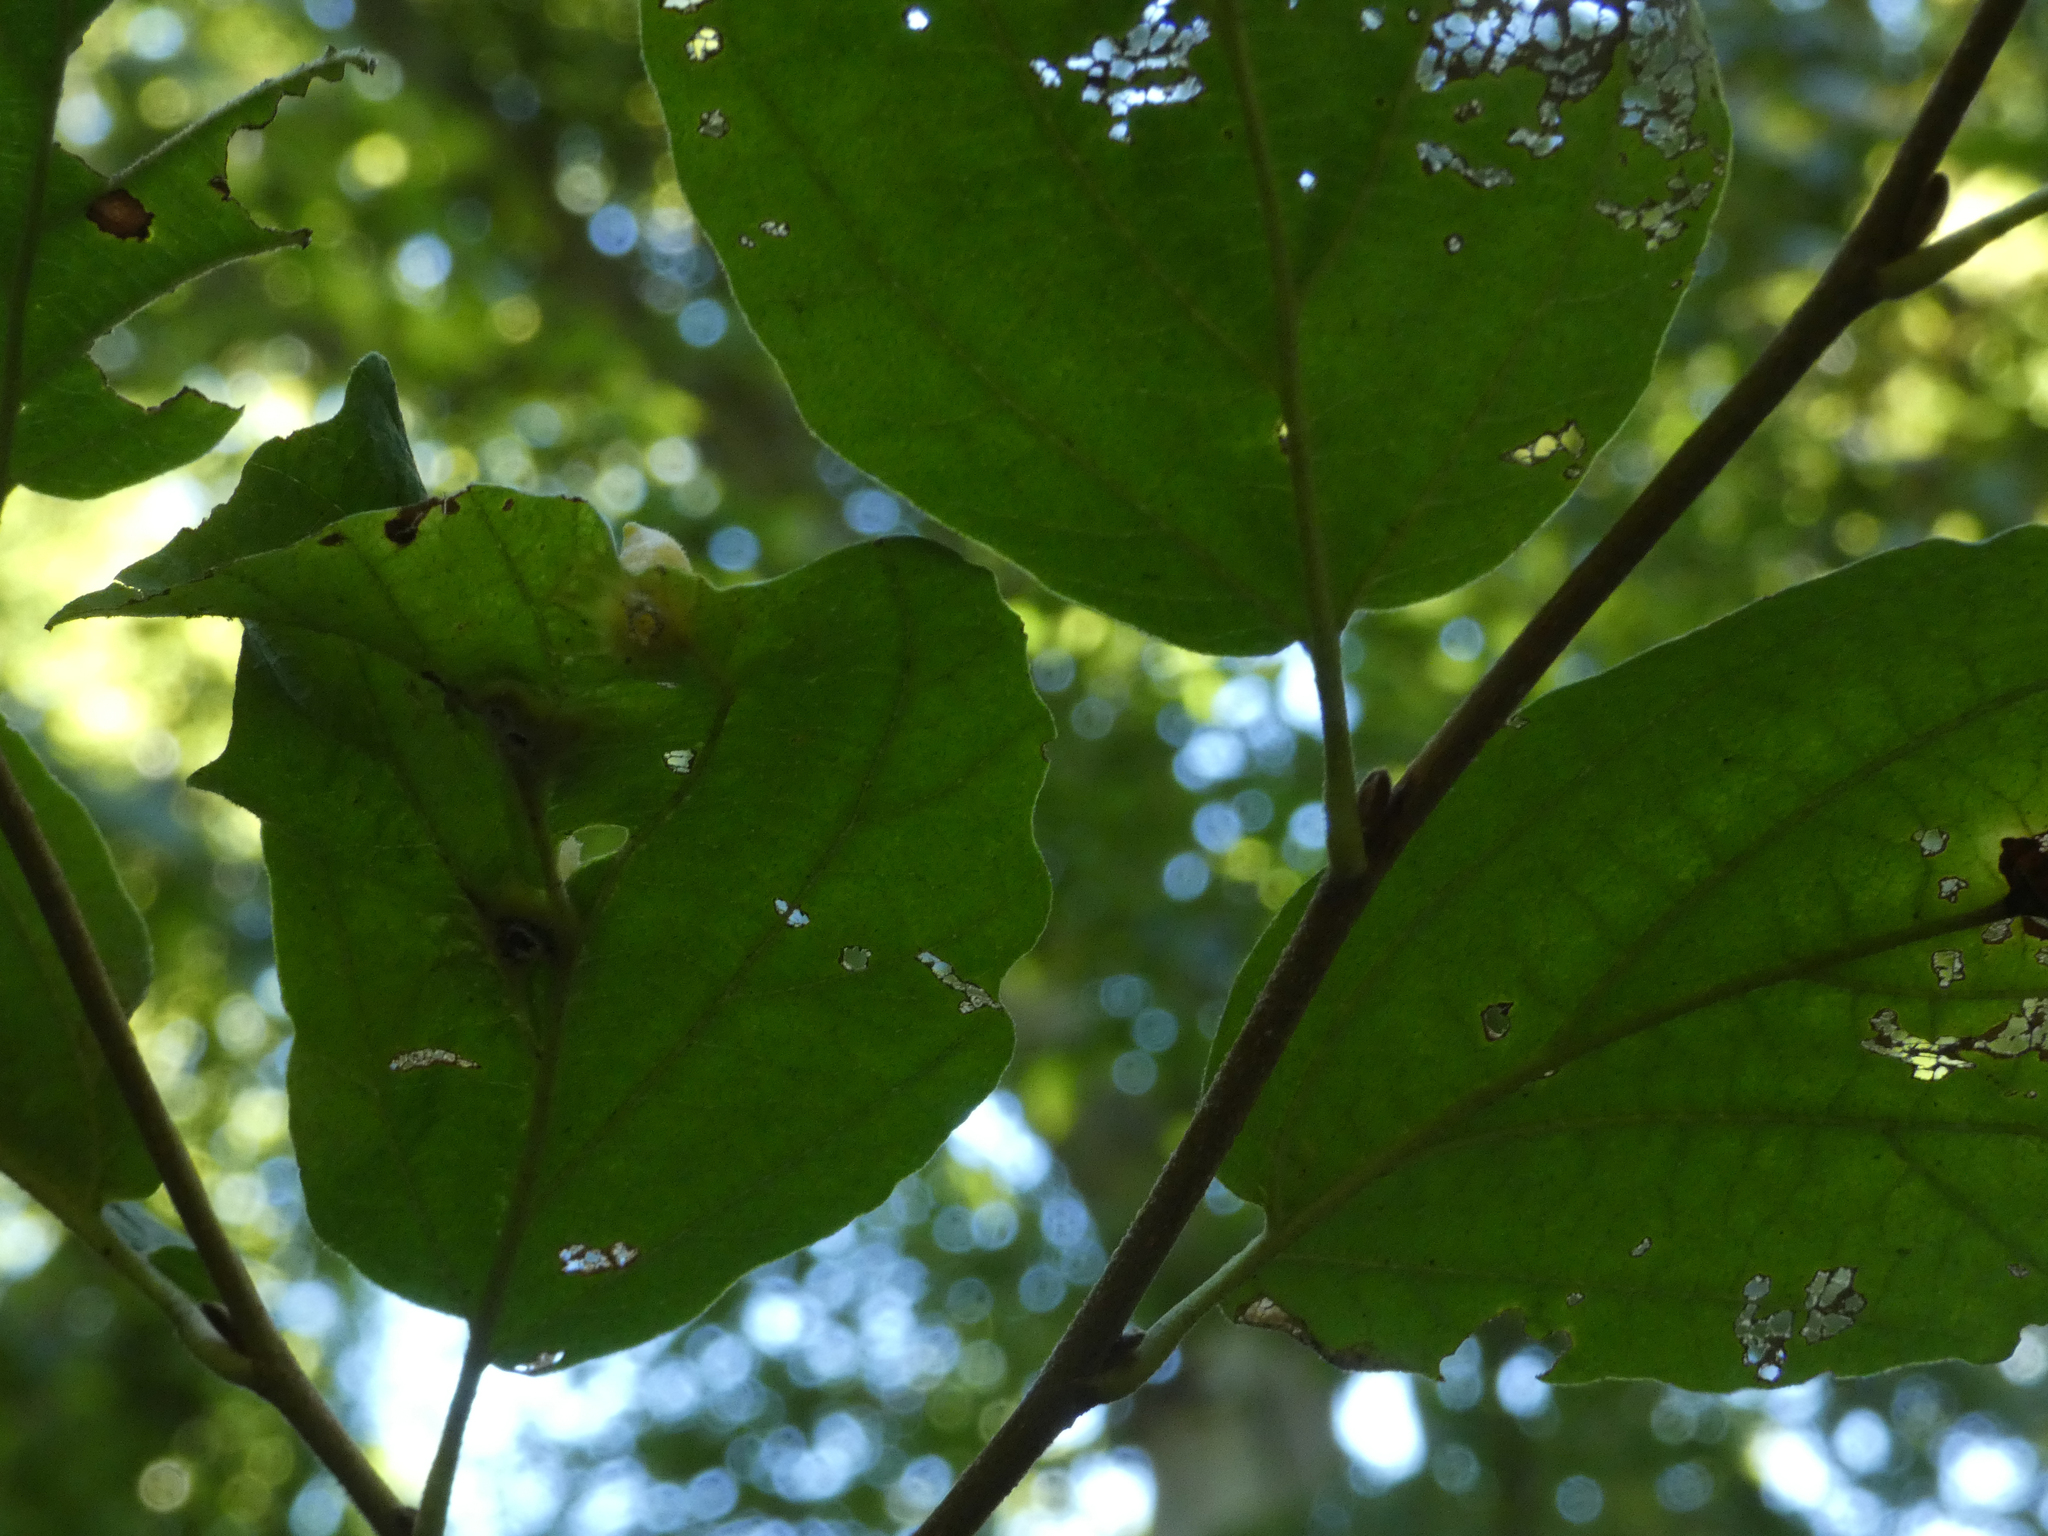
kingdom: Animalia
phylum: Arthropoda
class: Insecta
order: Hemiptera
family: Aphididae
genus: Hormaphis
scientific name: Hormaphis hamamelidis
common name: Witch-hazel cone gall aphid
